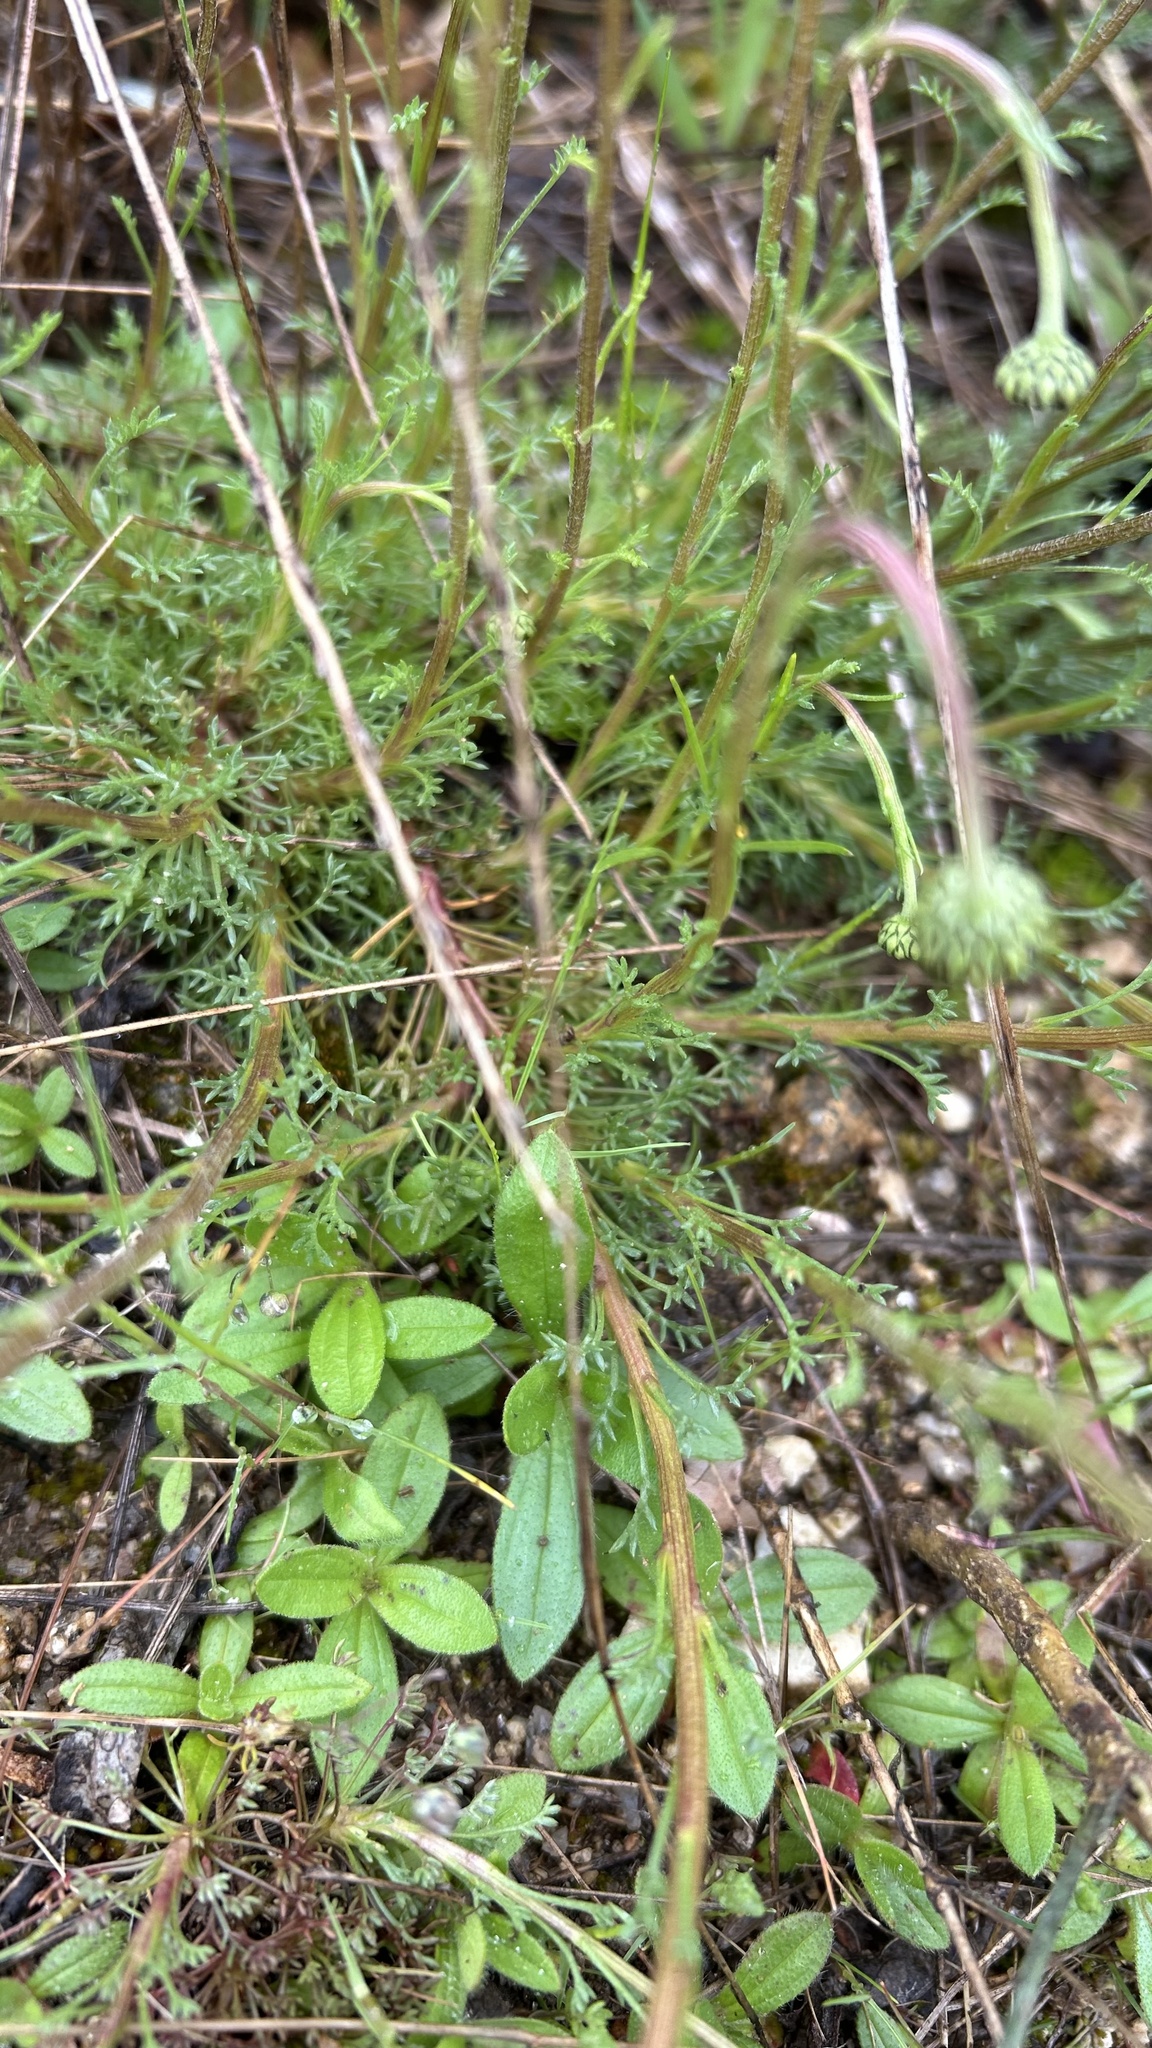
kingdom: Plantae
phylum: Tracheophyta
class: Magnoliopsida
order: Asterales
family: Asteraceae
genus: Leucanthemopsis
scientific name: Leucanthemopsis pulverulenta
